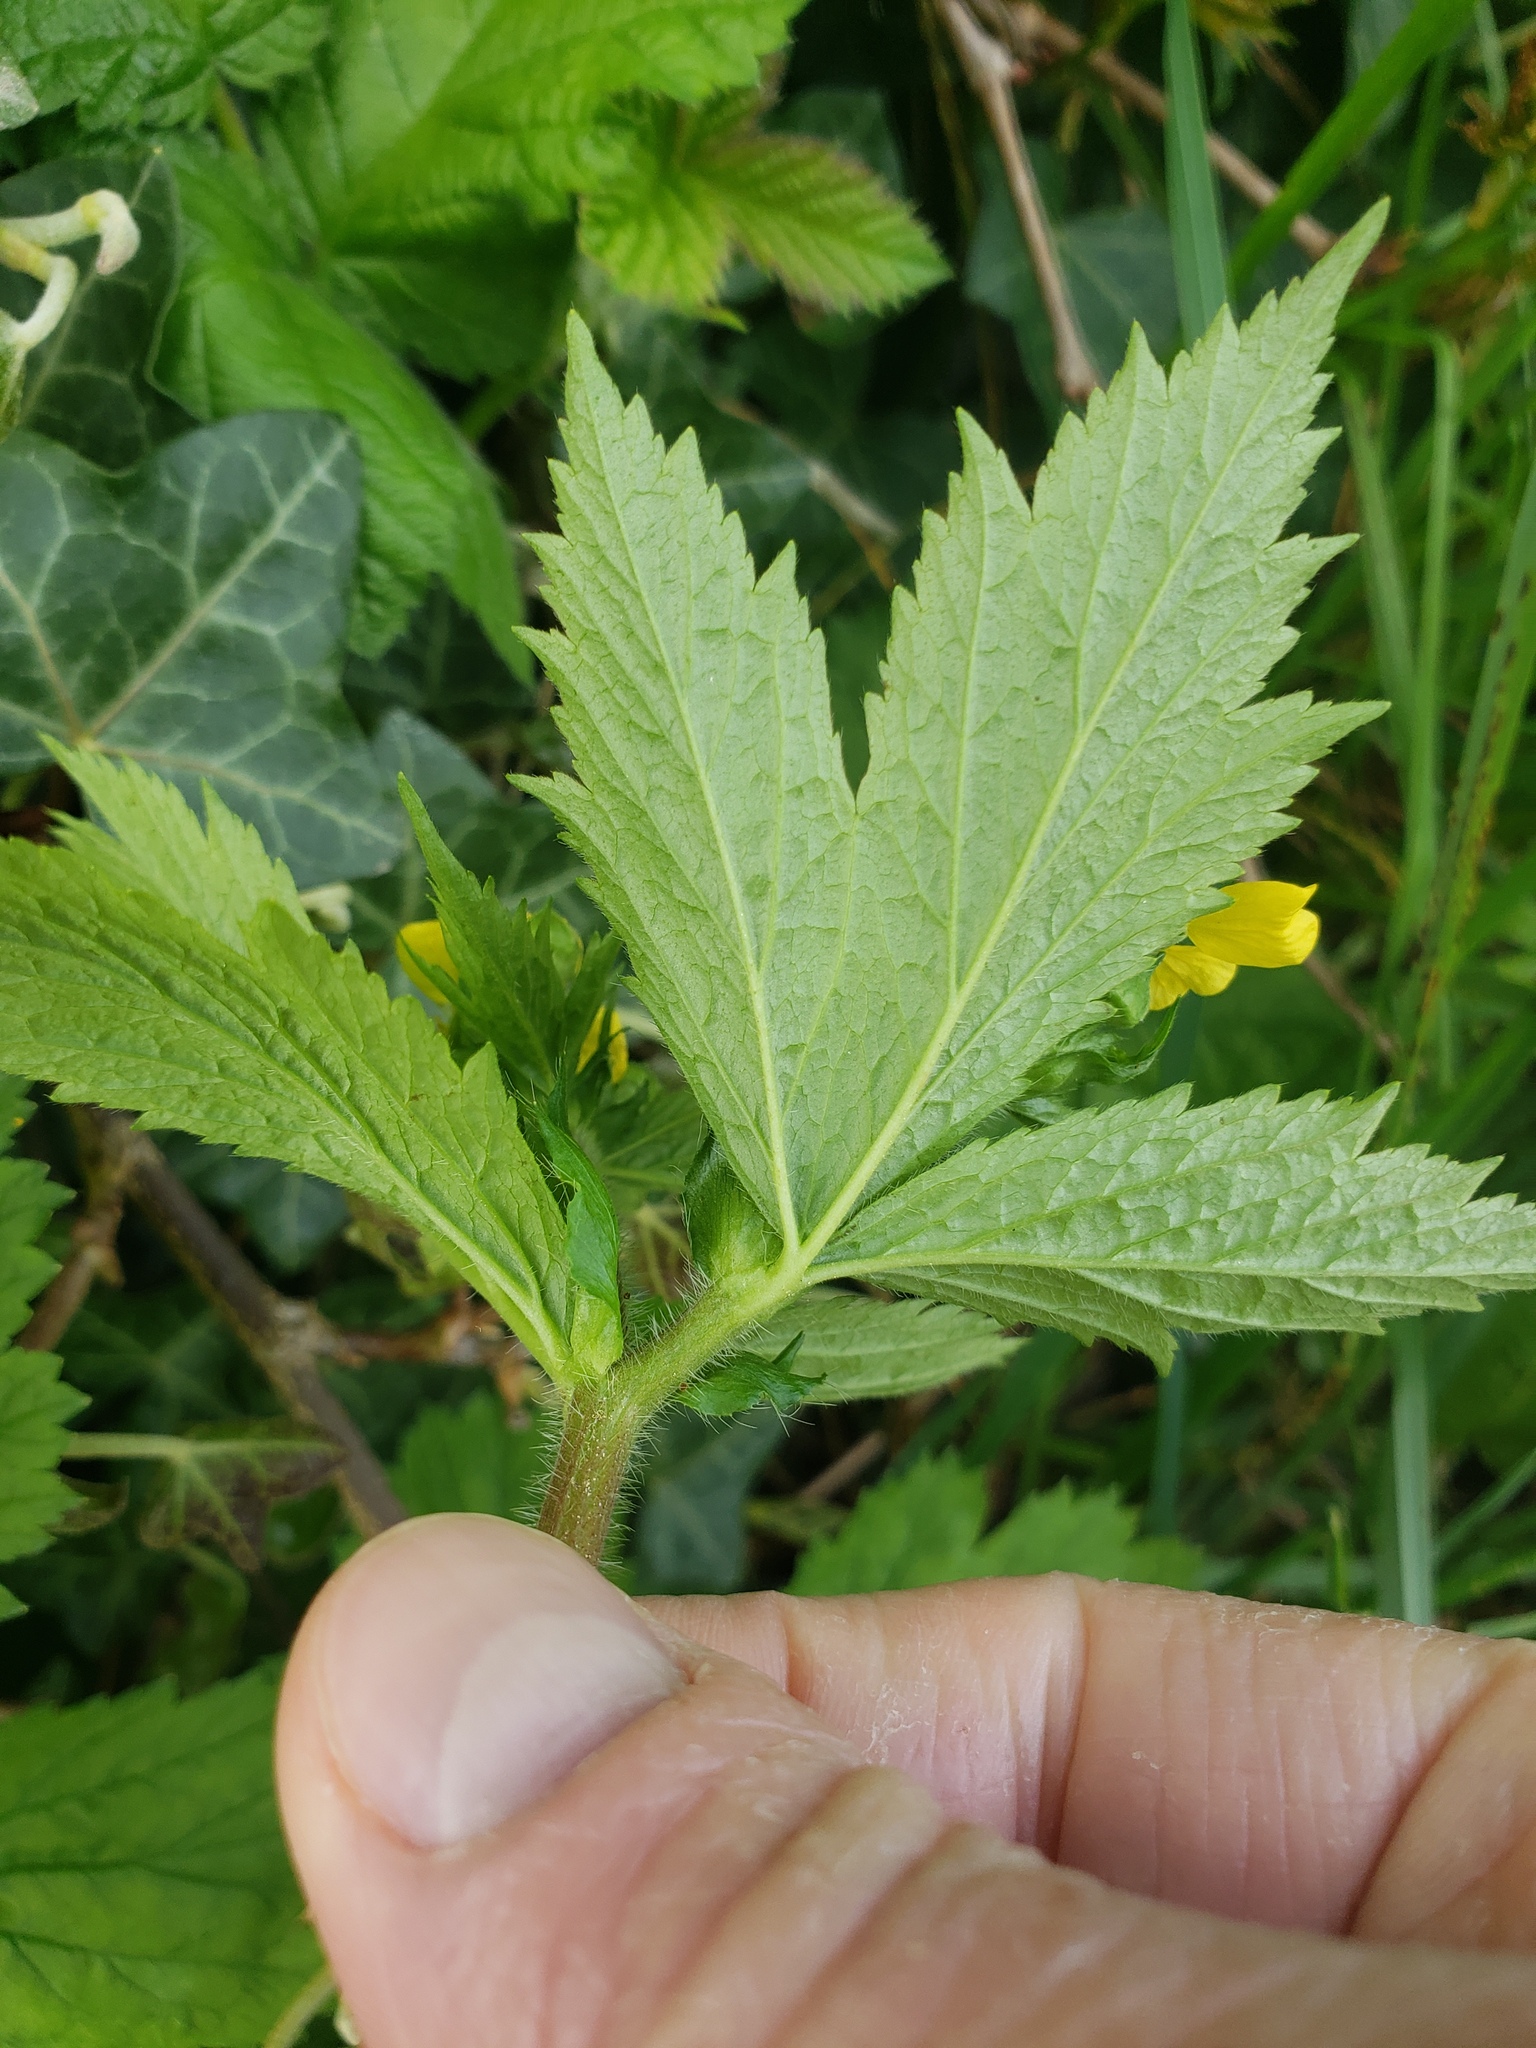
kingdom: Plantae
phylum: Tracheophyta
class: Magnoliopsida
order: Rosales
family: Rosaceae
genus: Geum
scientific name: Geum macrophyllum
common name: Large-leaved avens
